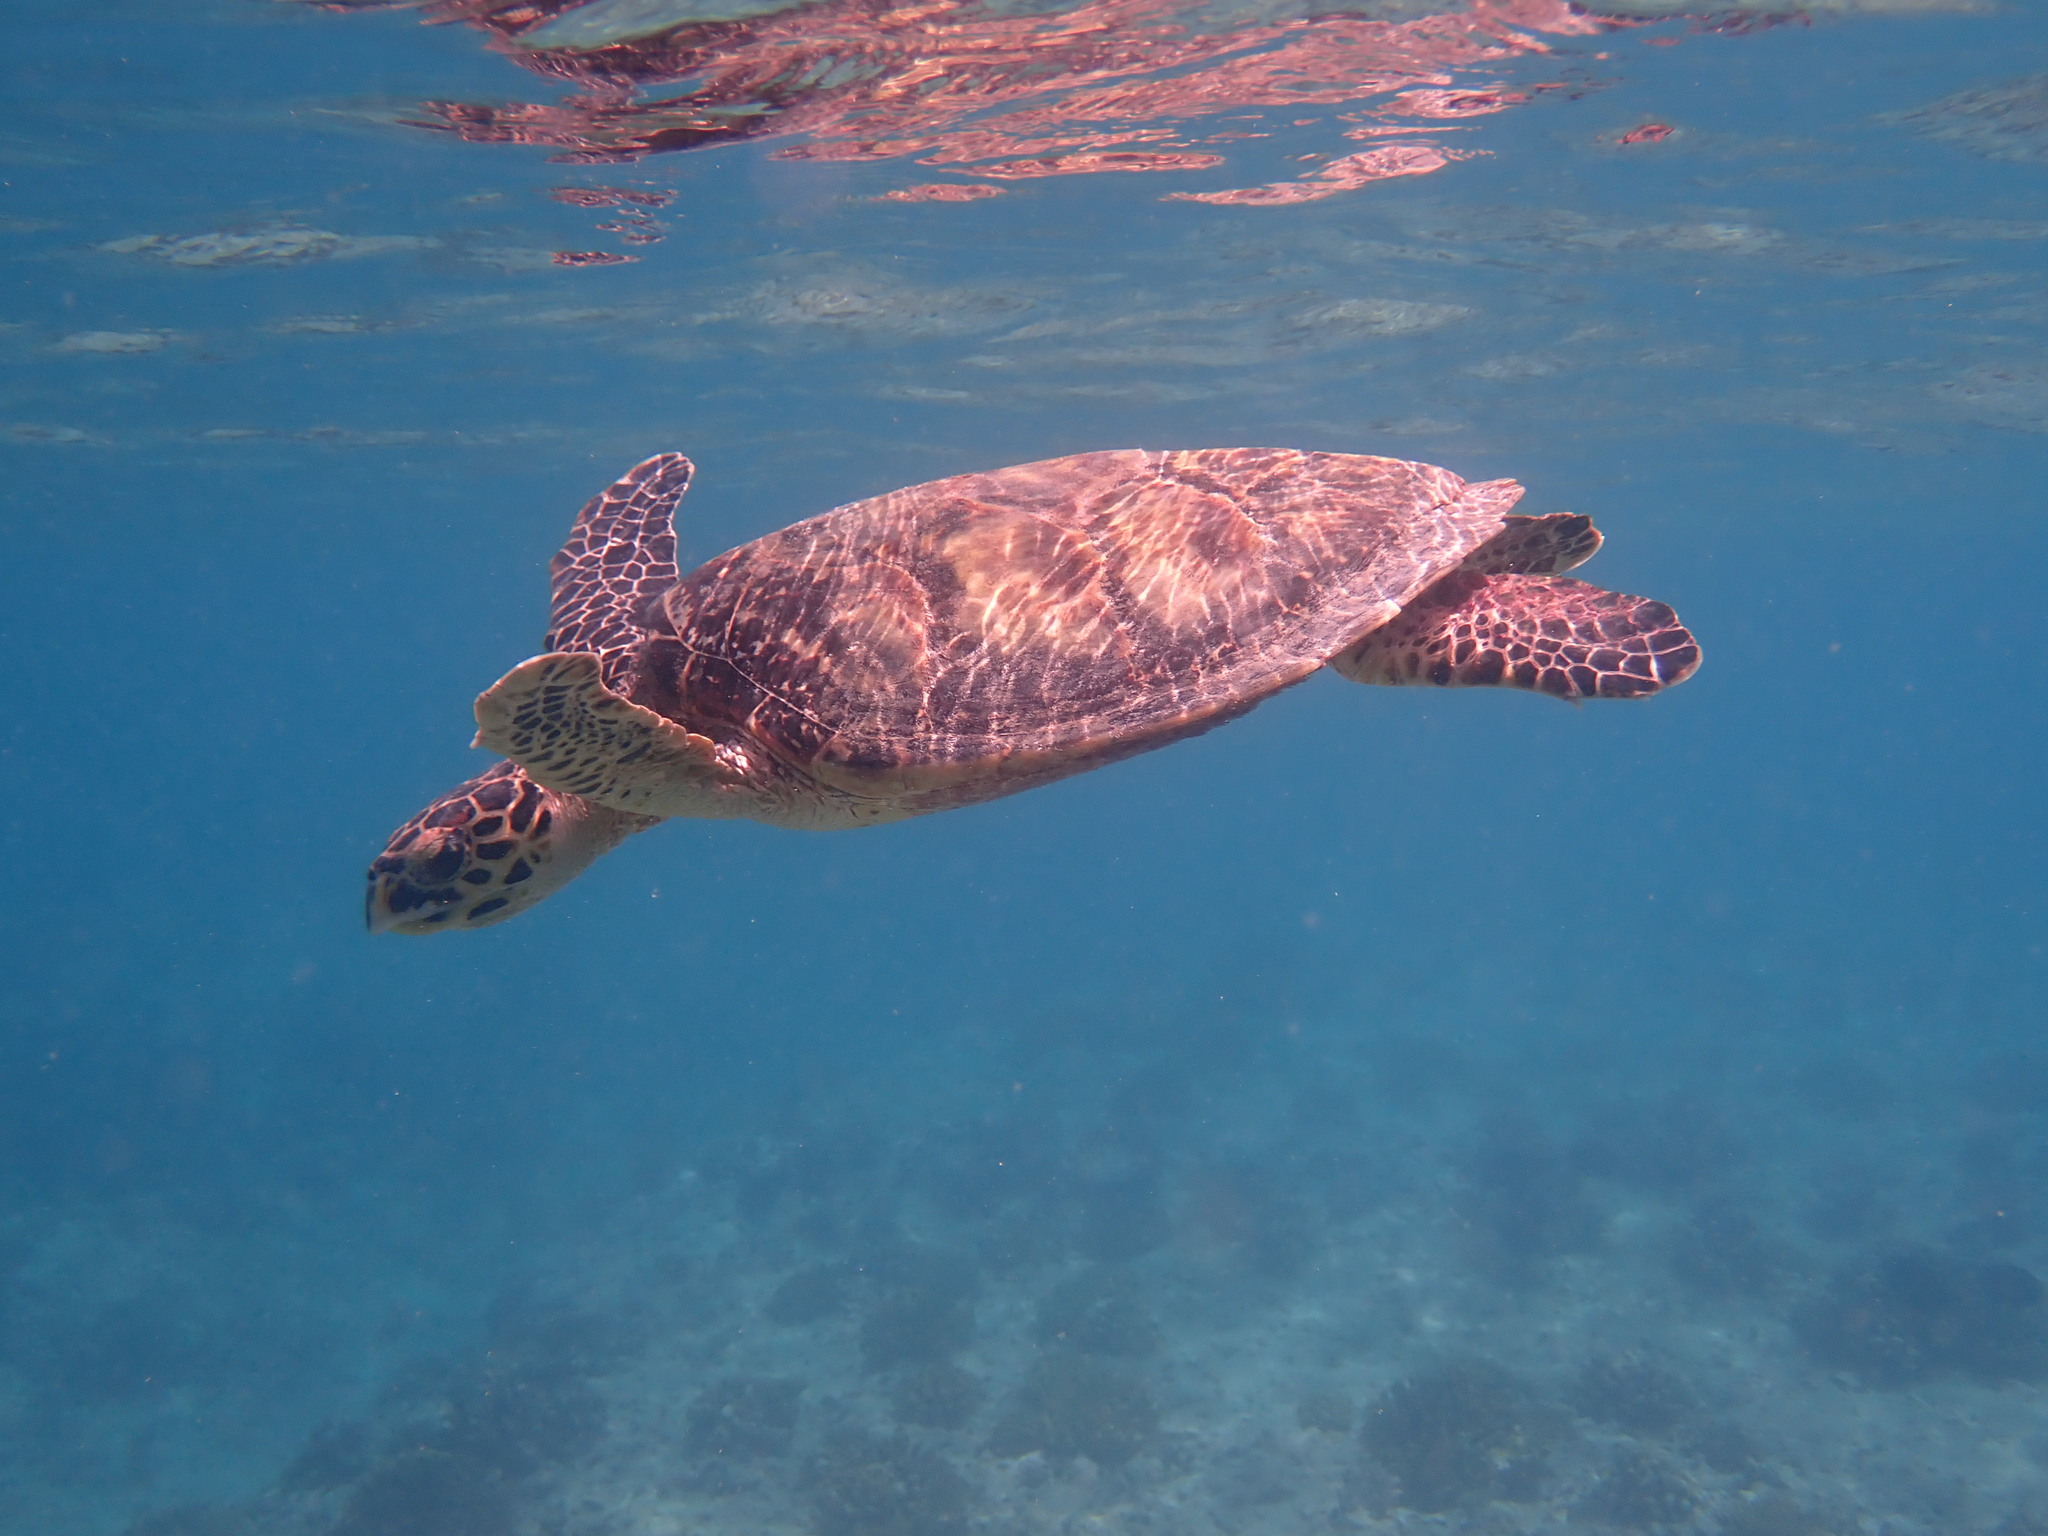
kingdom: Animalia
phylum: Chordata
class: Testudines
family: Cheloniidae
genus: Eretmochelys
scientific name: Eretmochelys imbricata
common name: Hawksbill turtle
